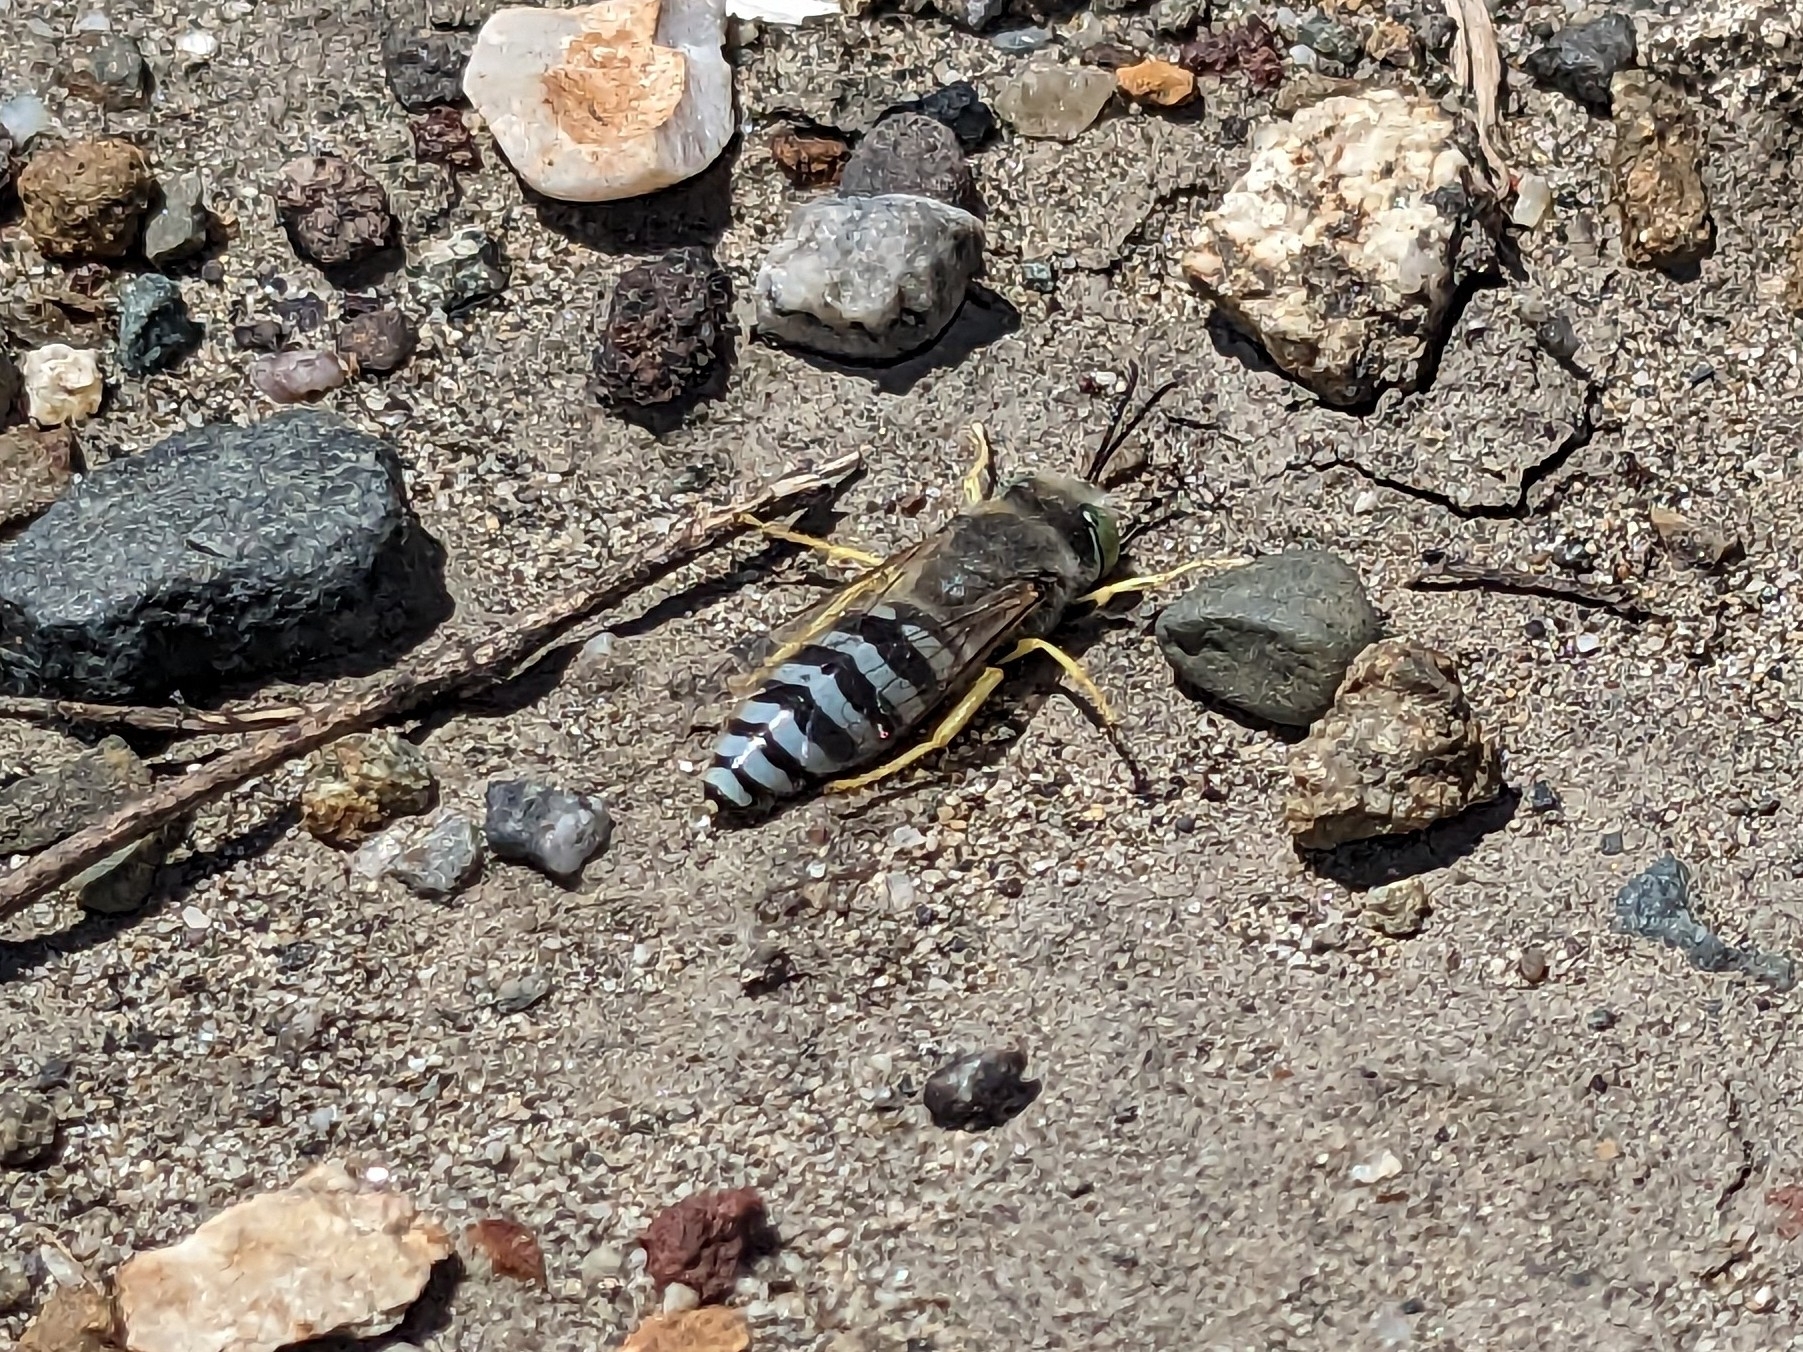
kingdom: Animalia
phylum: Arthropoda
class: Insecta
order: Hymenoptera
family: Crabronidae
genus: Bembix
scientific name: Bembix americana
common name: American sand wasp
